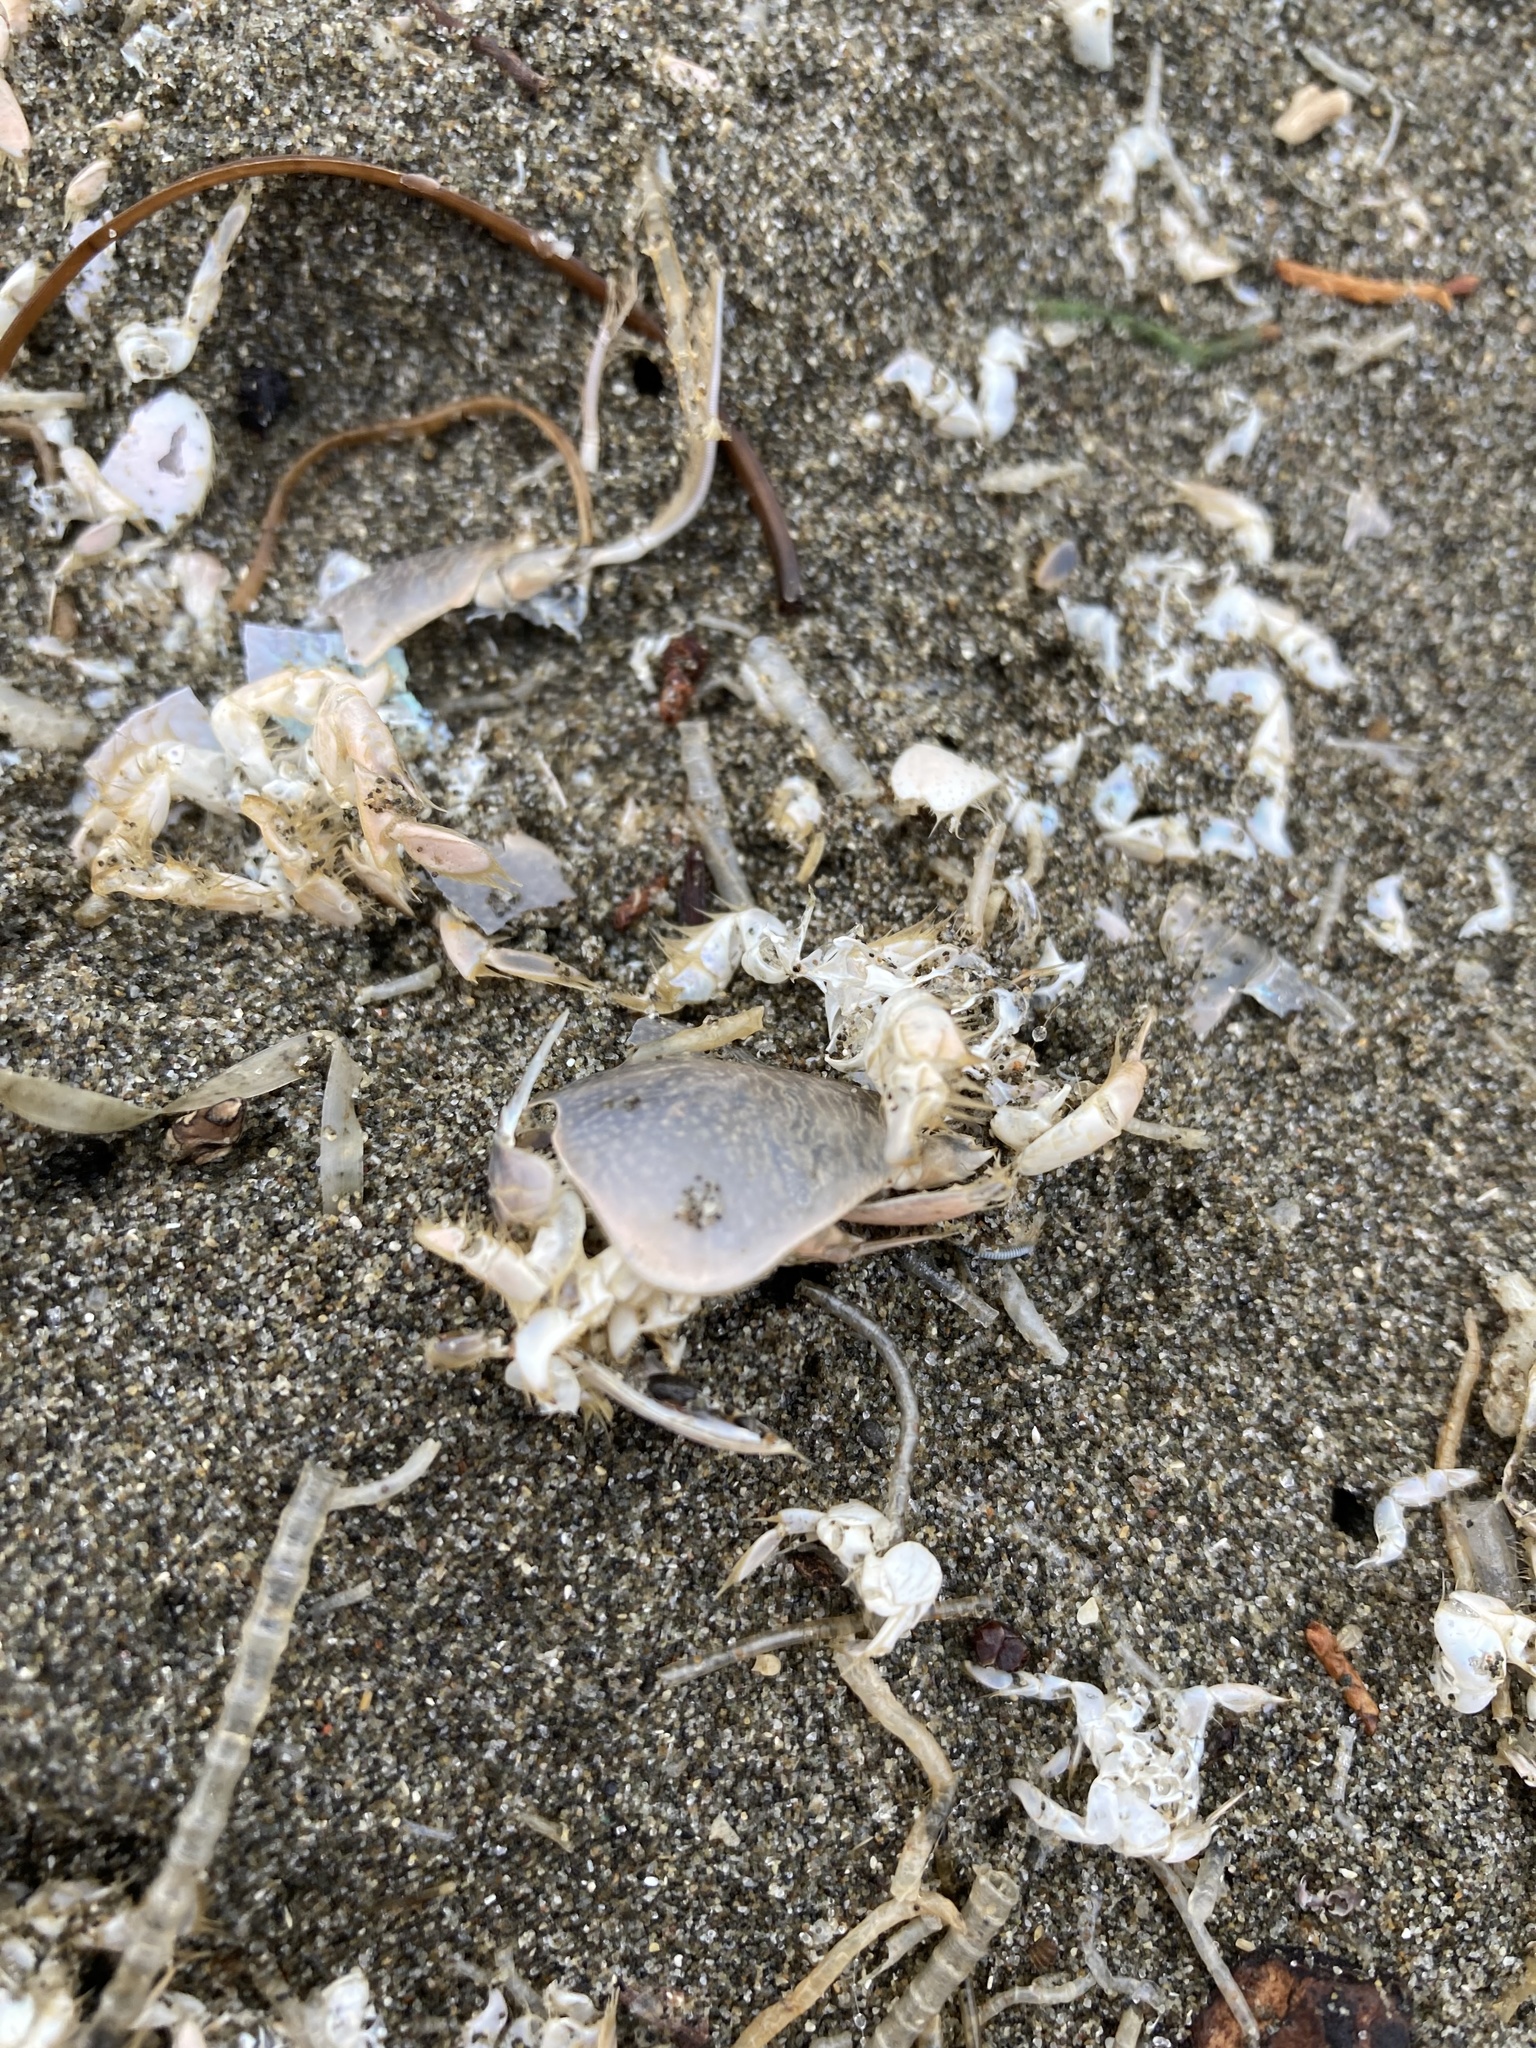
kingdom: Animalia
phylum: Arthropoda
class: Malacostraca
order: Decapoda
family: Hippidae
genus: Emerita
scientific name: Emerita analoga
